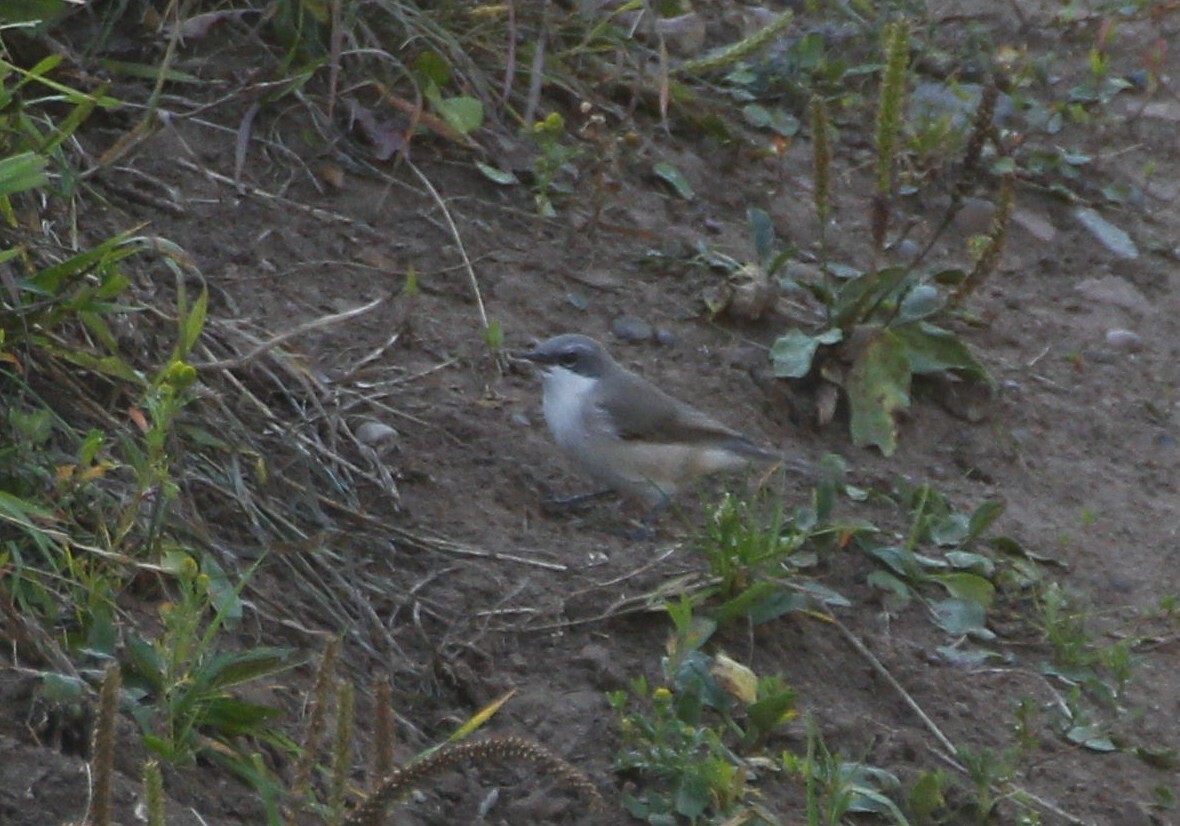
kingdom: Animalia
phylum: Chordata
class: Aves
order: Passeriformes
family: Sylviidae
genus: Sylvia
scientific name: Sylvia curruca
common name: Lesser whitethroat
